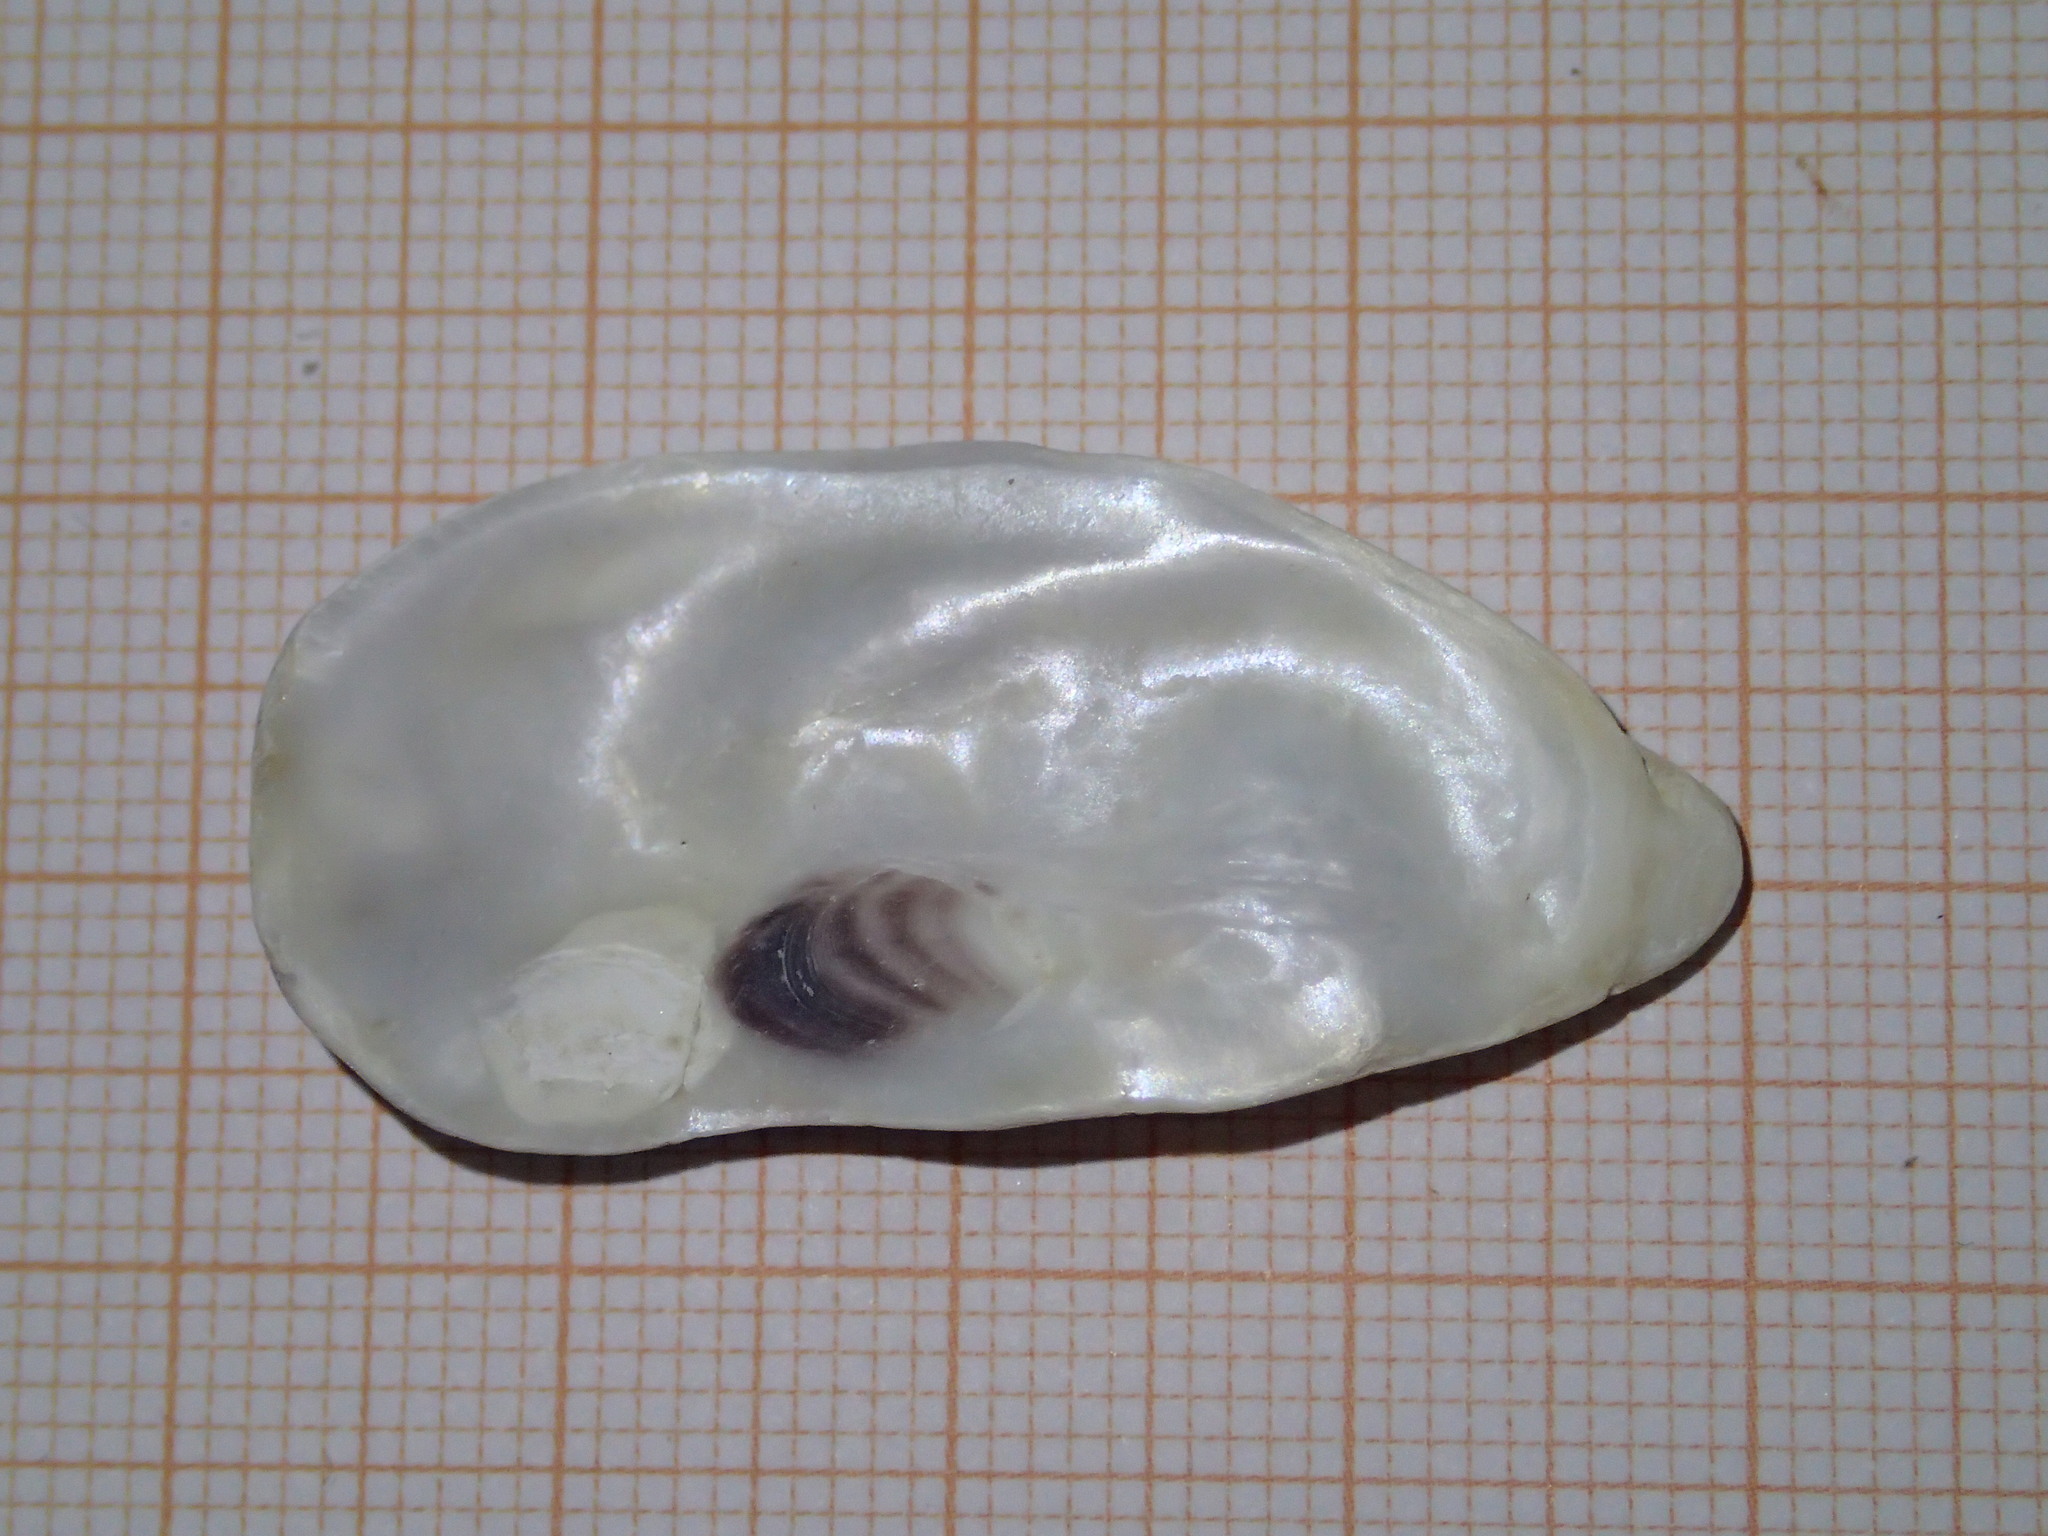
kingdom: Animalia
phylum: Mollusca
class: Bivalvia
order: Ostreida
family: Ostreidae
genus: Magallana
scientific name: Magallana gigas
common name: Pacific oyster
